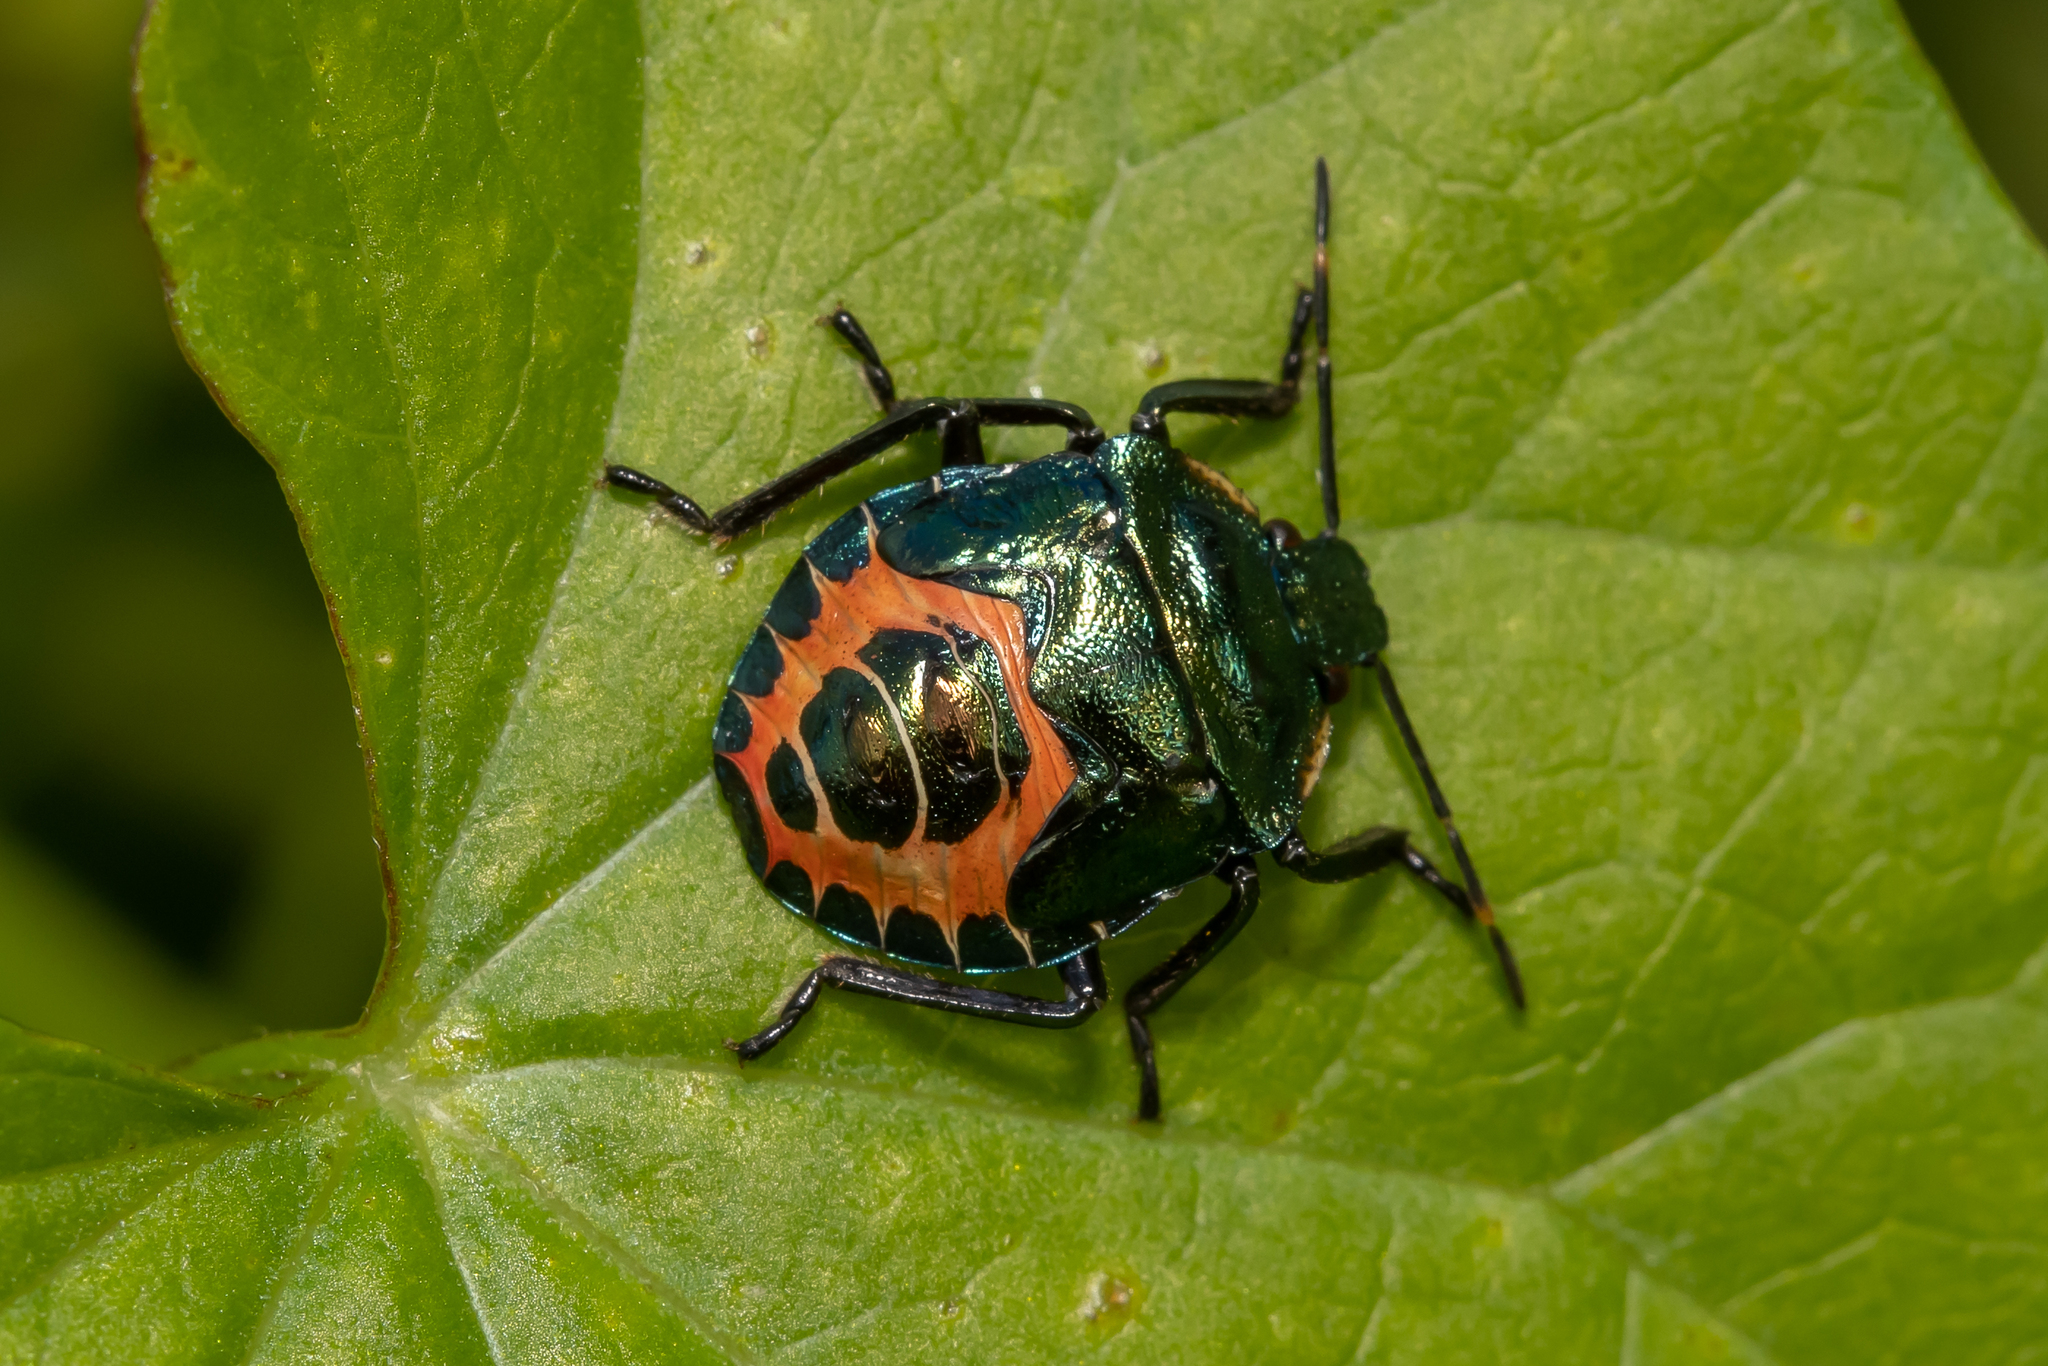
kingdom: Animalia
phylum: Arthropoda
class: Insecta
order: Hemiptera
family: Pentatomidae
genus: Troilus
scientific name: Troilus luridus
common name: Bronze shieldbug
